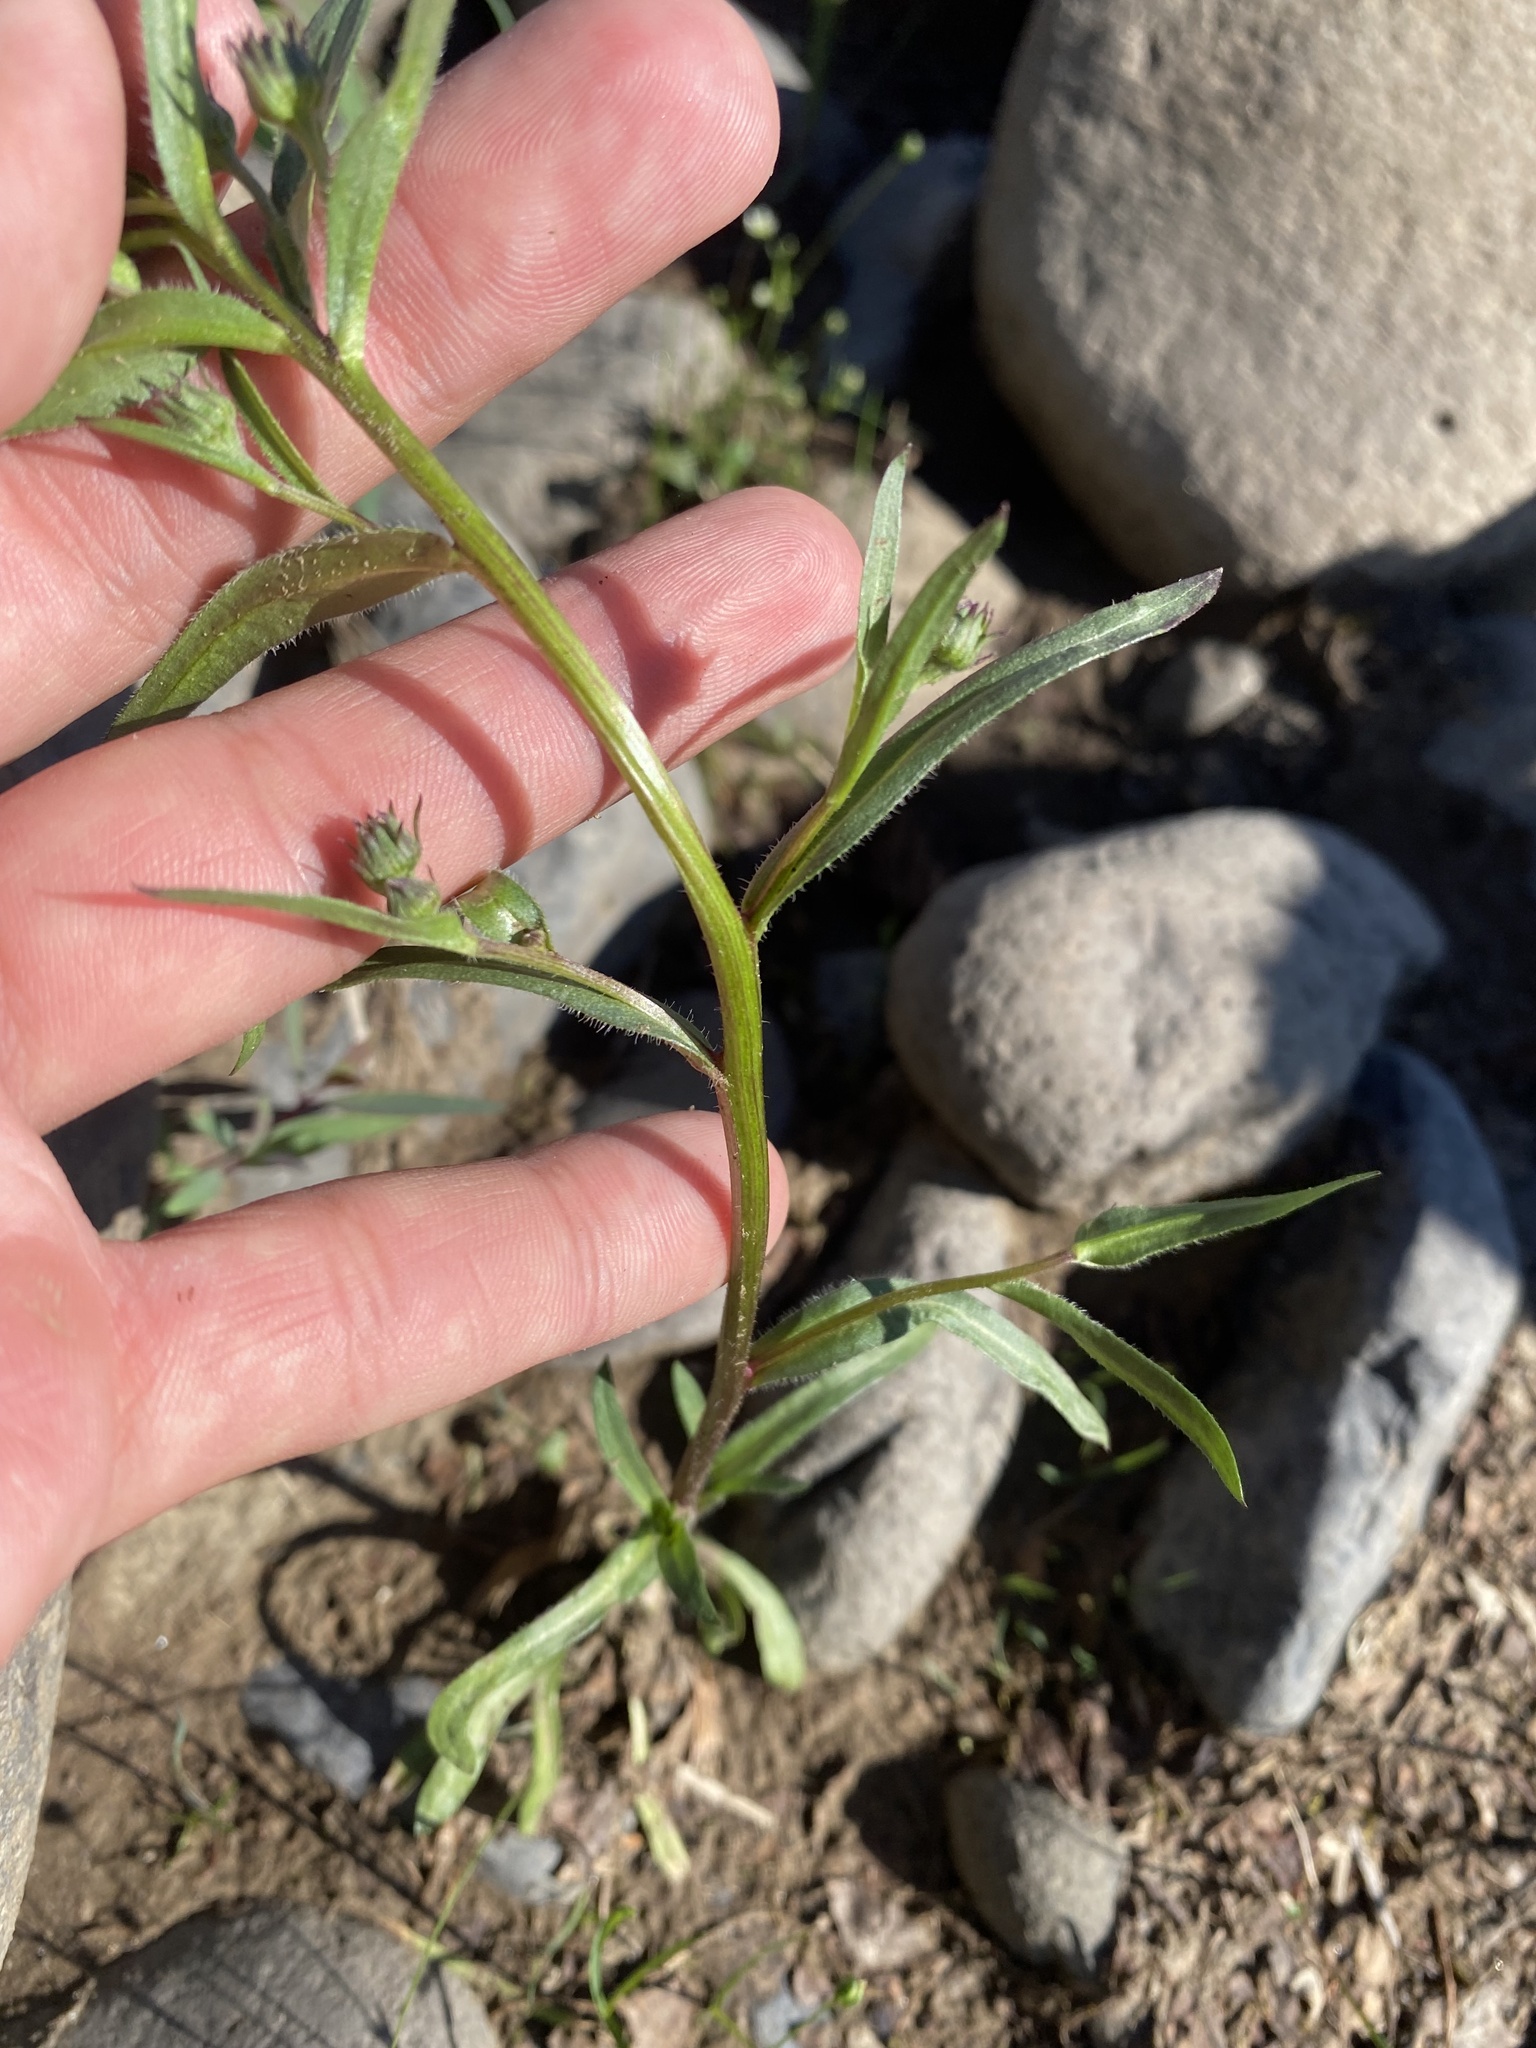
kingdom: Plantae
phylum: Tracheophyta
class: Magnoliopsida
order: Asterales
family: Asteraceae
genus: Erigeron
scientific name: Erigeron acris
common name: Blue fleabane
